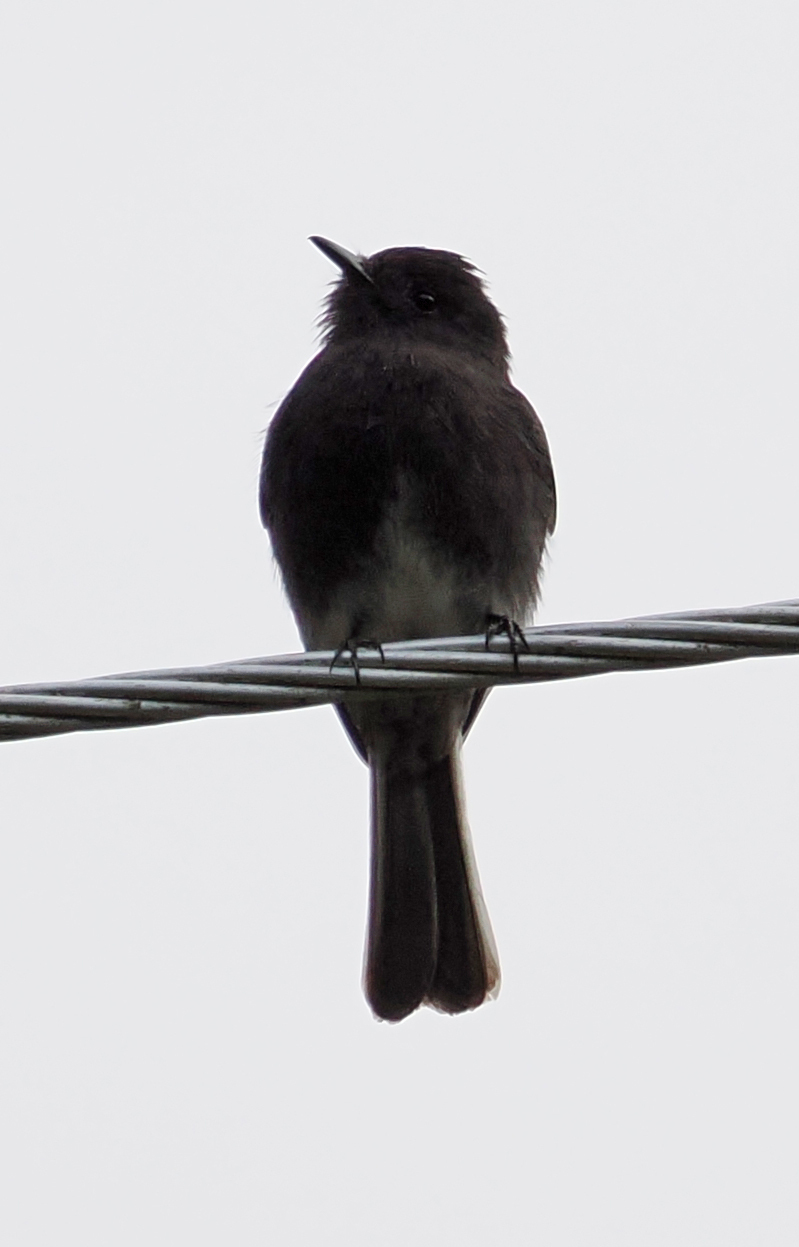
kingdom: Animalia
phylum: Chordata
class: Aves
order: Passeriformes
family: Tyrannidae
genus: Sayornis
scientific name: Sayornis nigricans
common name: Black phoebe
